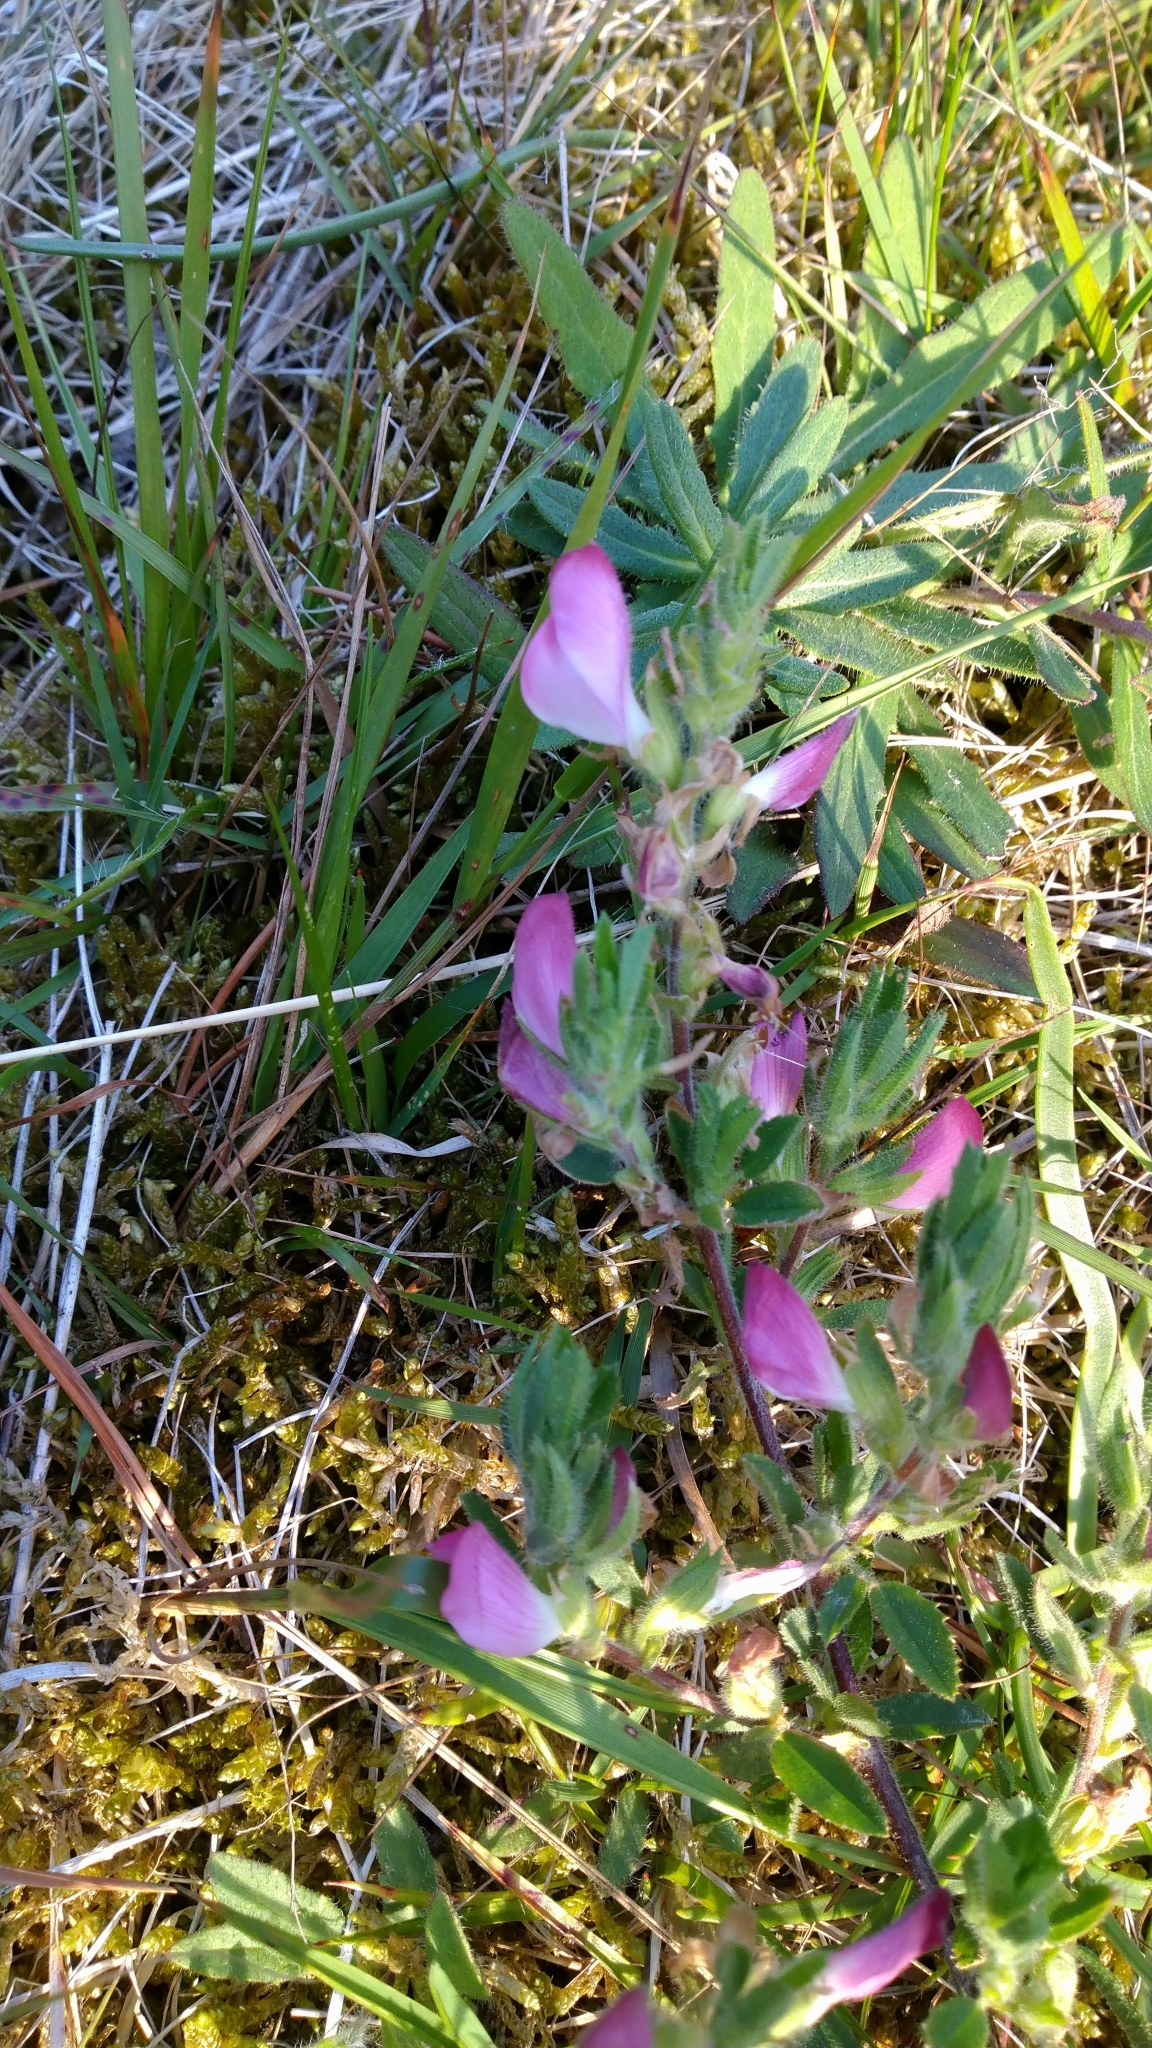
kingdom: Plantae
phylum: Tracheophyta
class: Magnoliopsida
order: Fabales
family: Fabaceae
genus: Ononis
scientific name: Ononis spinosa
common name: Spiny restharrow
